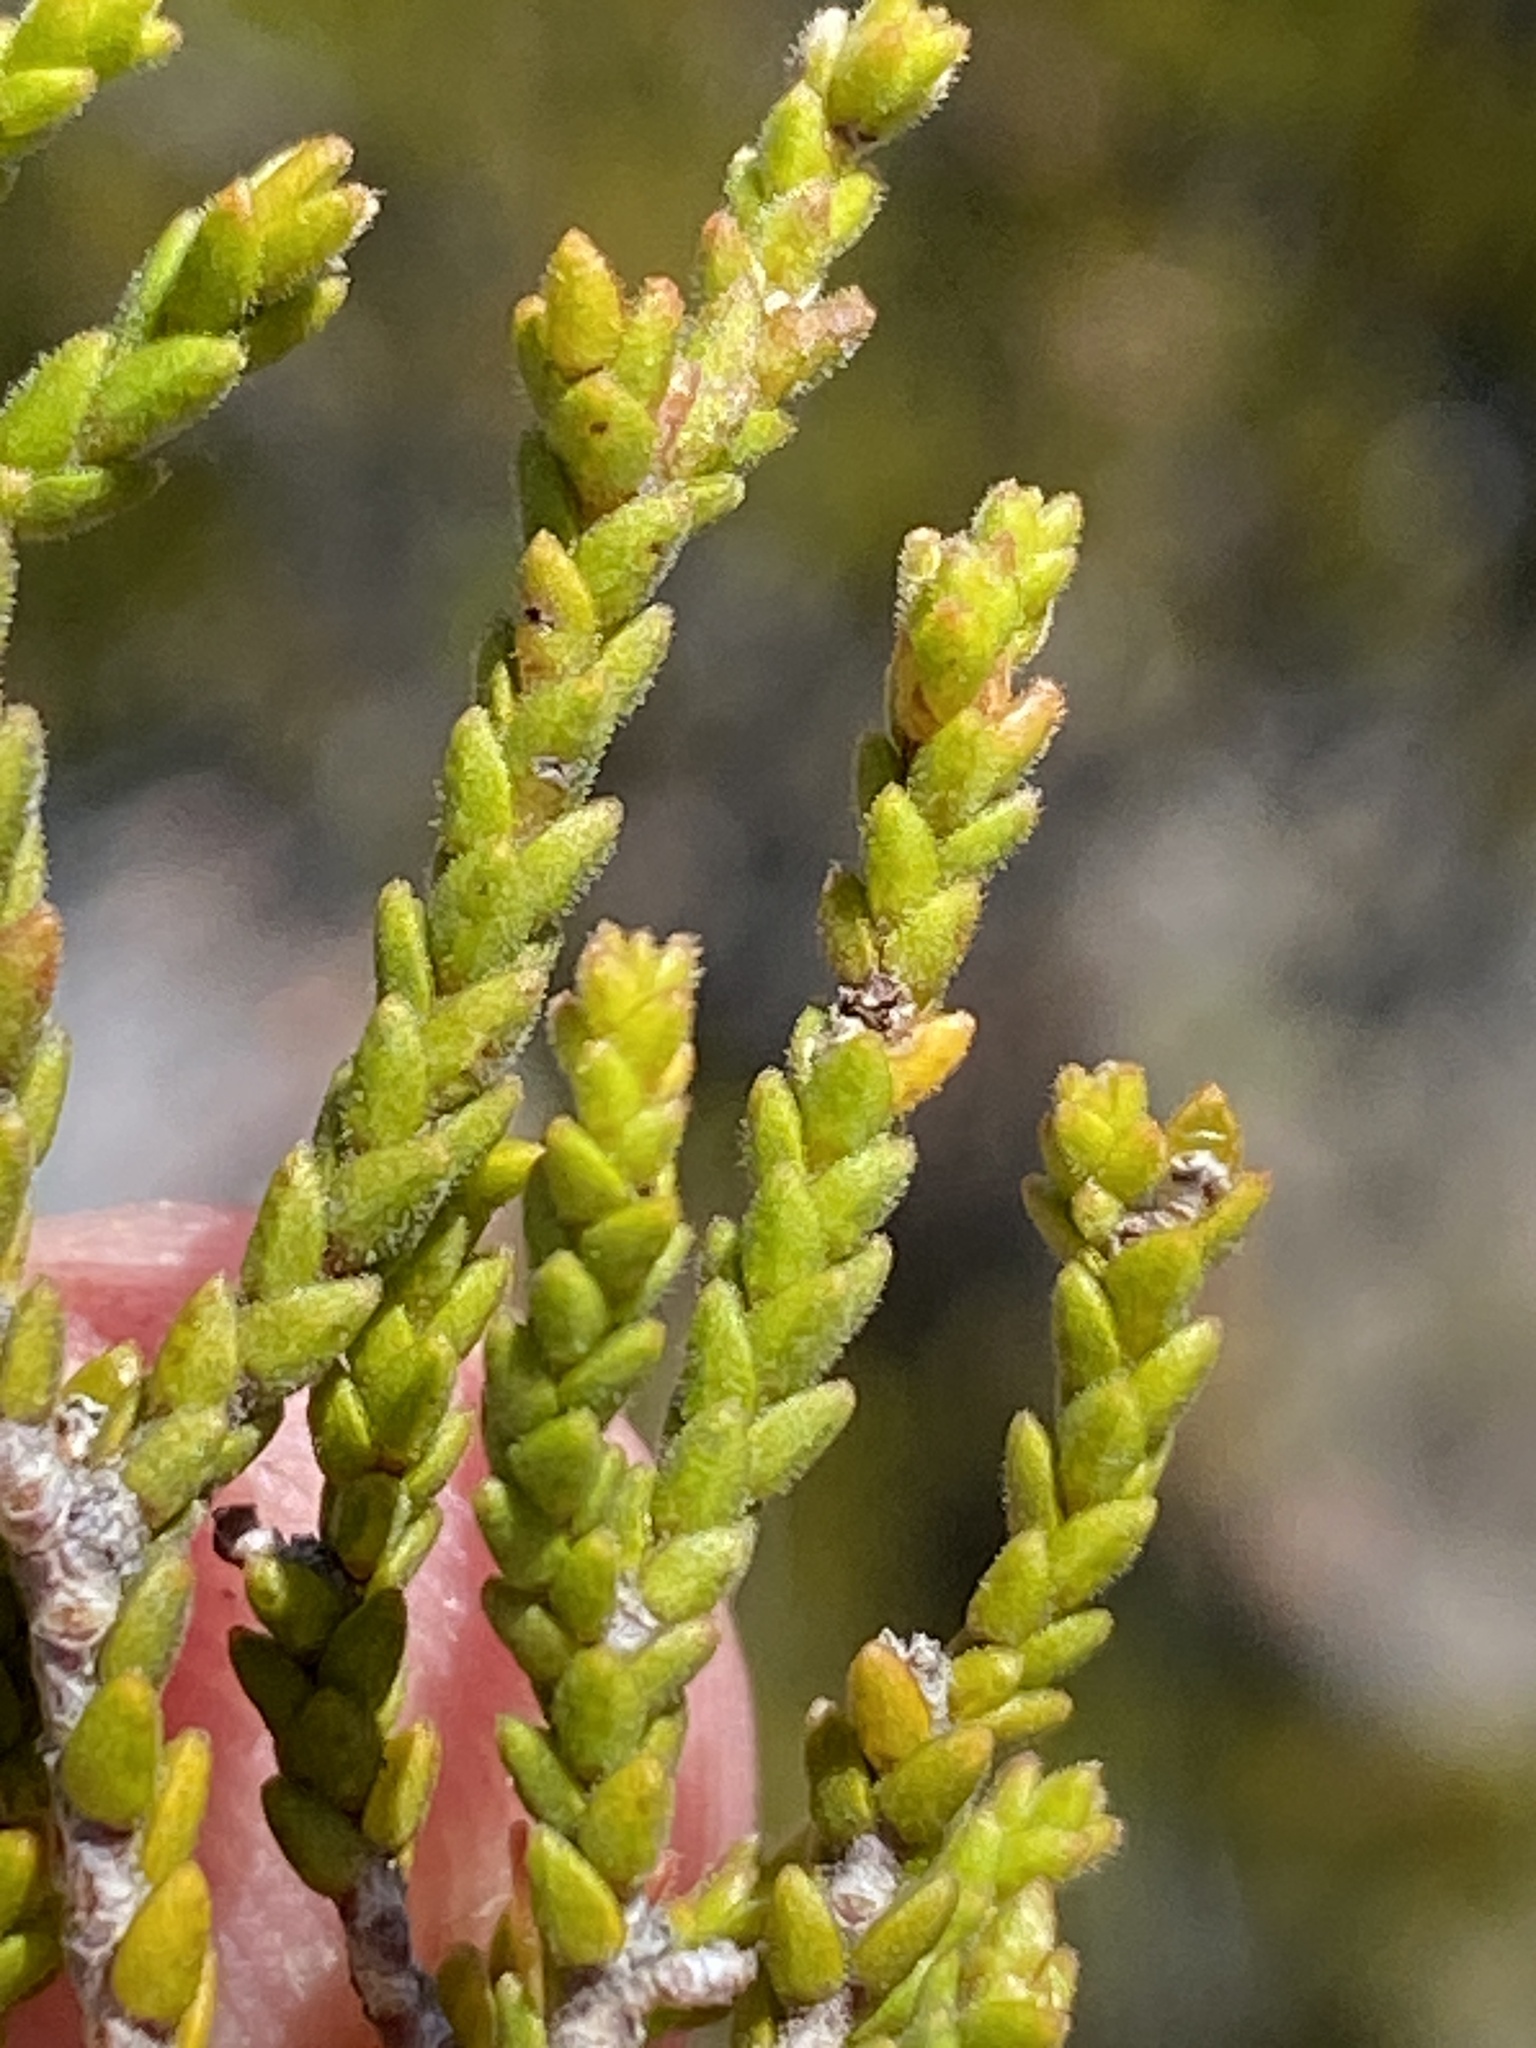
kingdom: Plantae
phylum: Tracheophyta
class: Magnoliopsida
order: Sapindales
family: Rutaceae
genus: Diosma
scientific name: Diosma apetala
